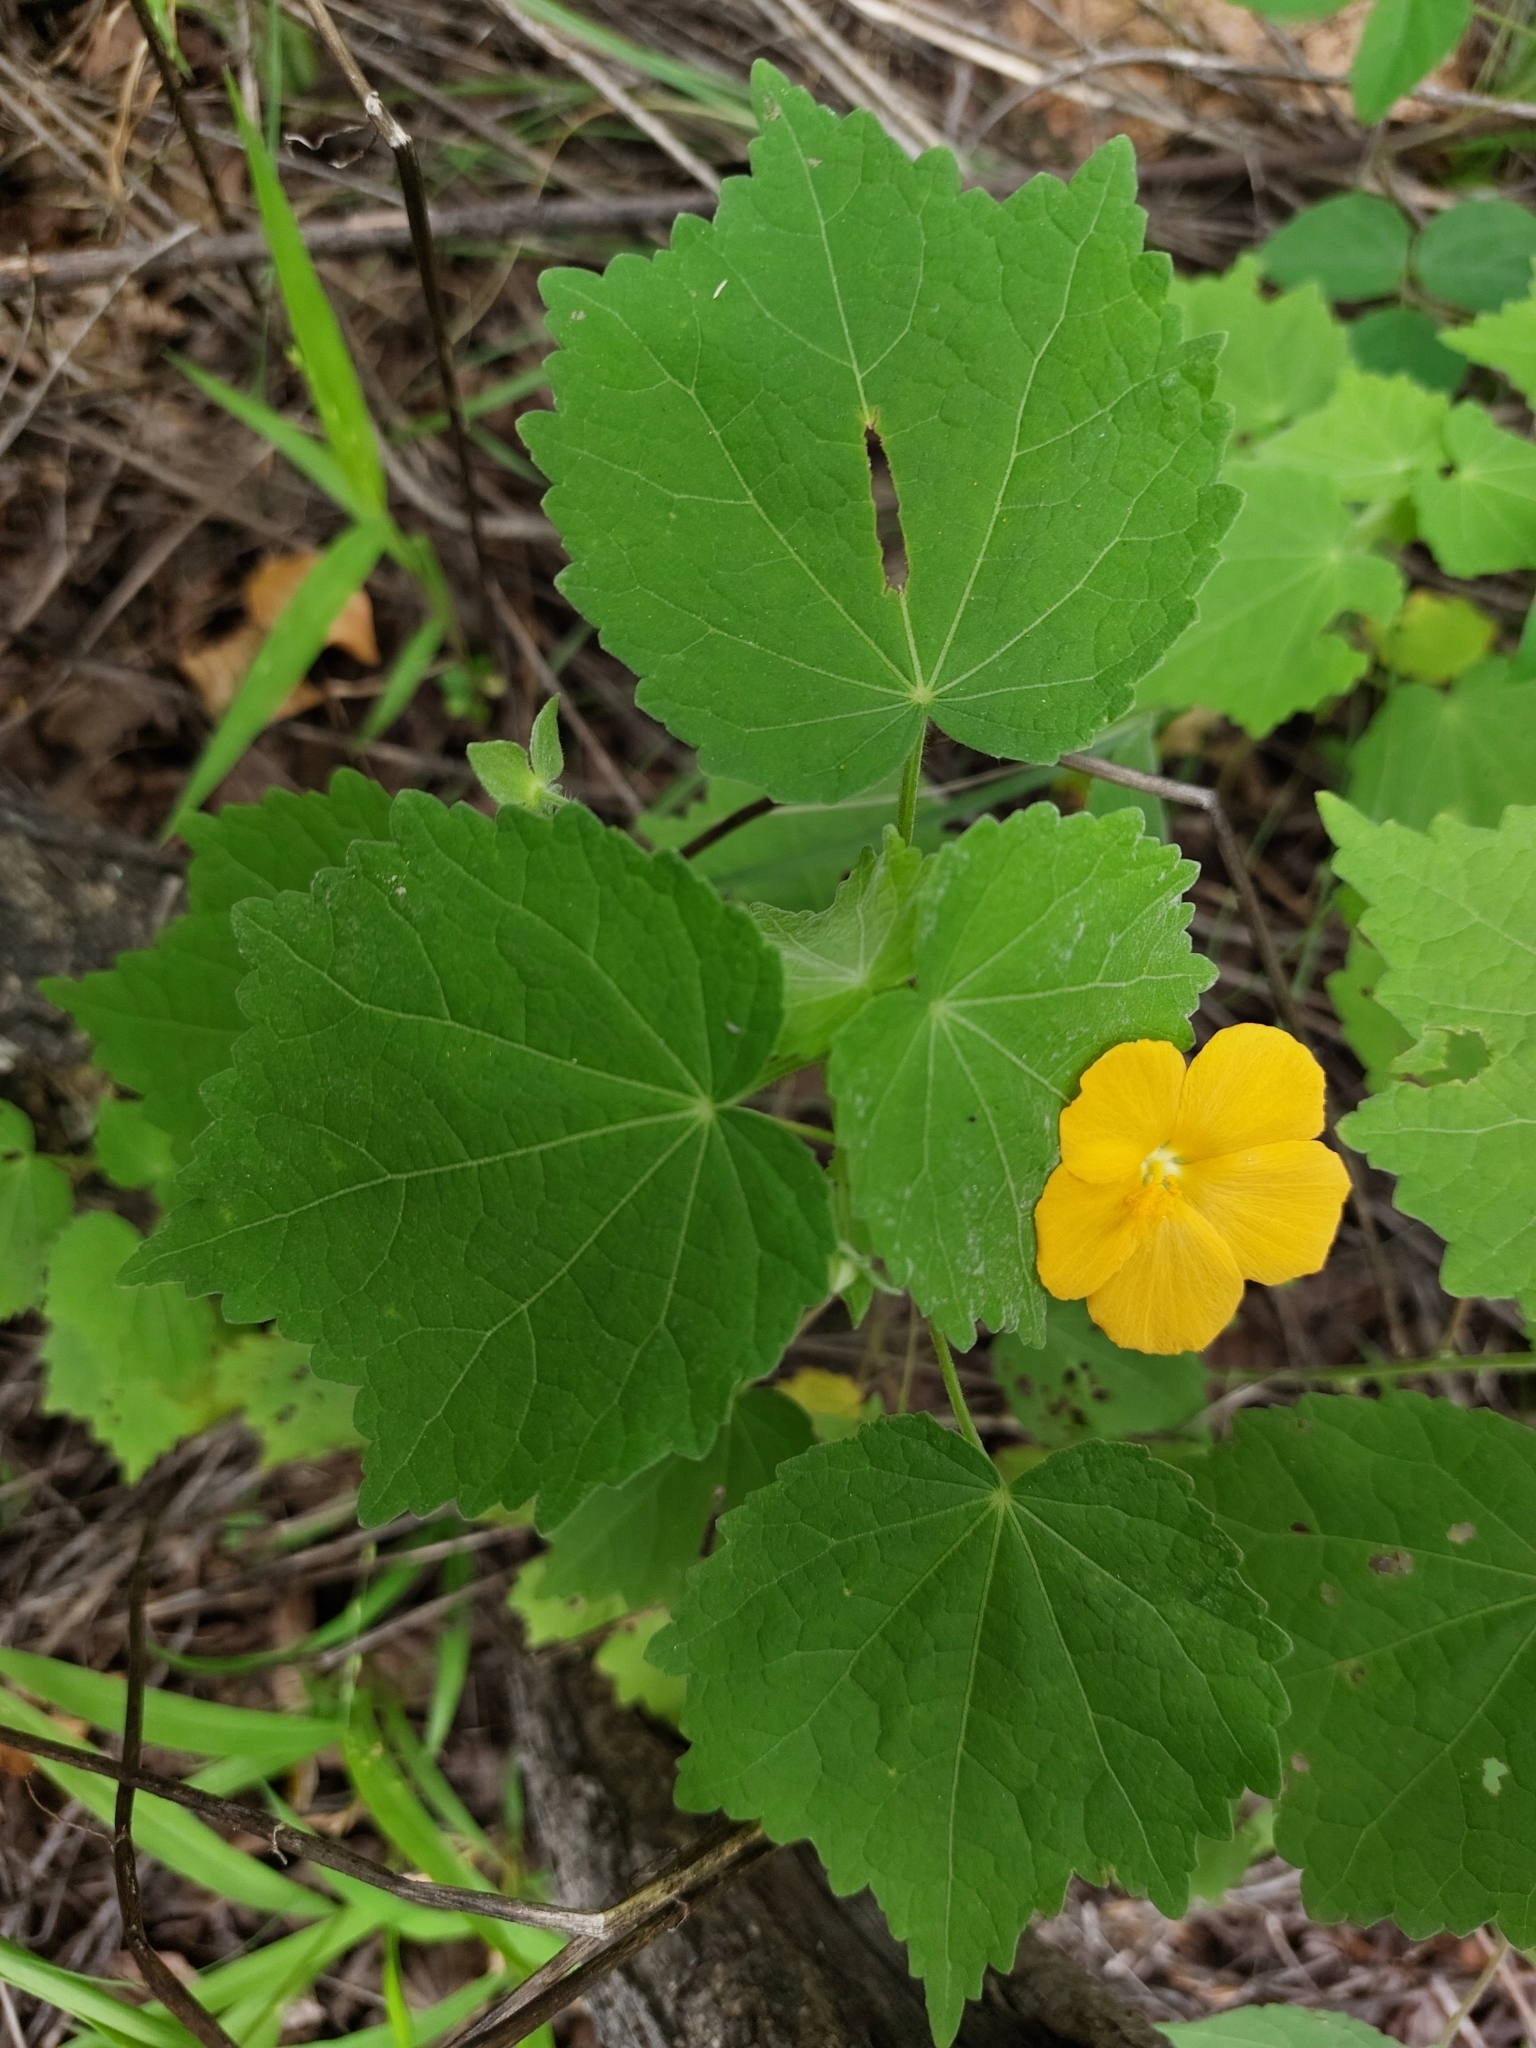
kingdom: Plantae
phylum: Tracheophyta
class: Magnoliopsida
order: Malvales
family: Malvaceae
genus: Pavonia
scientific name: Pavonia burchellii
